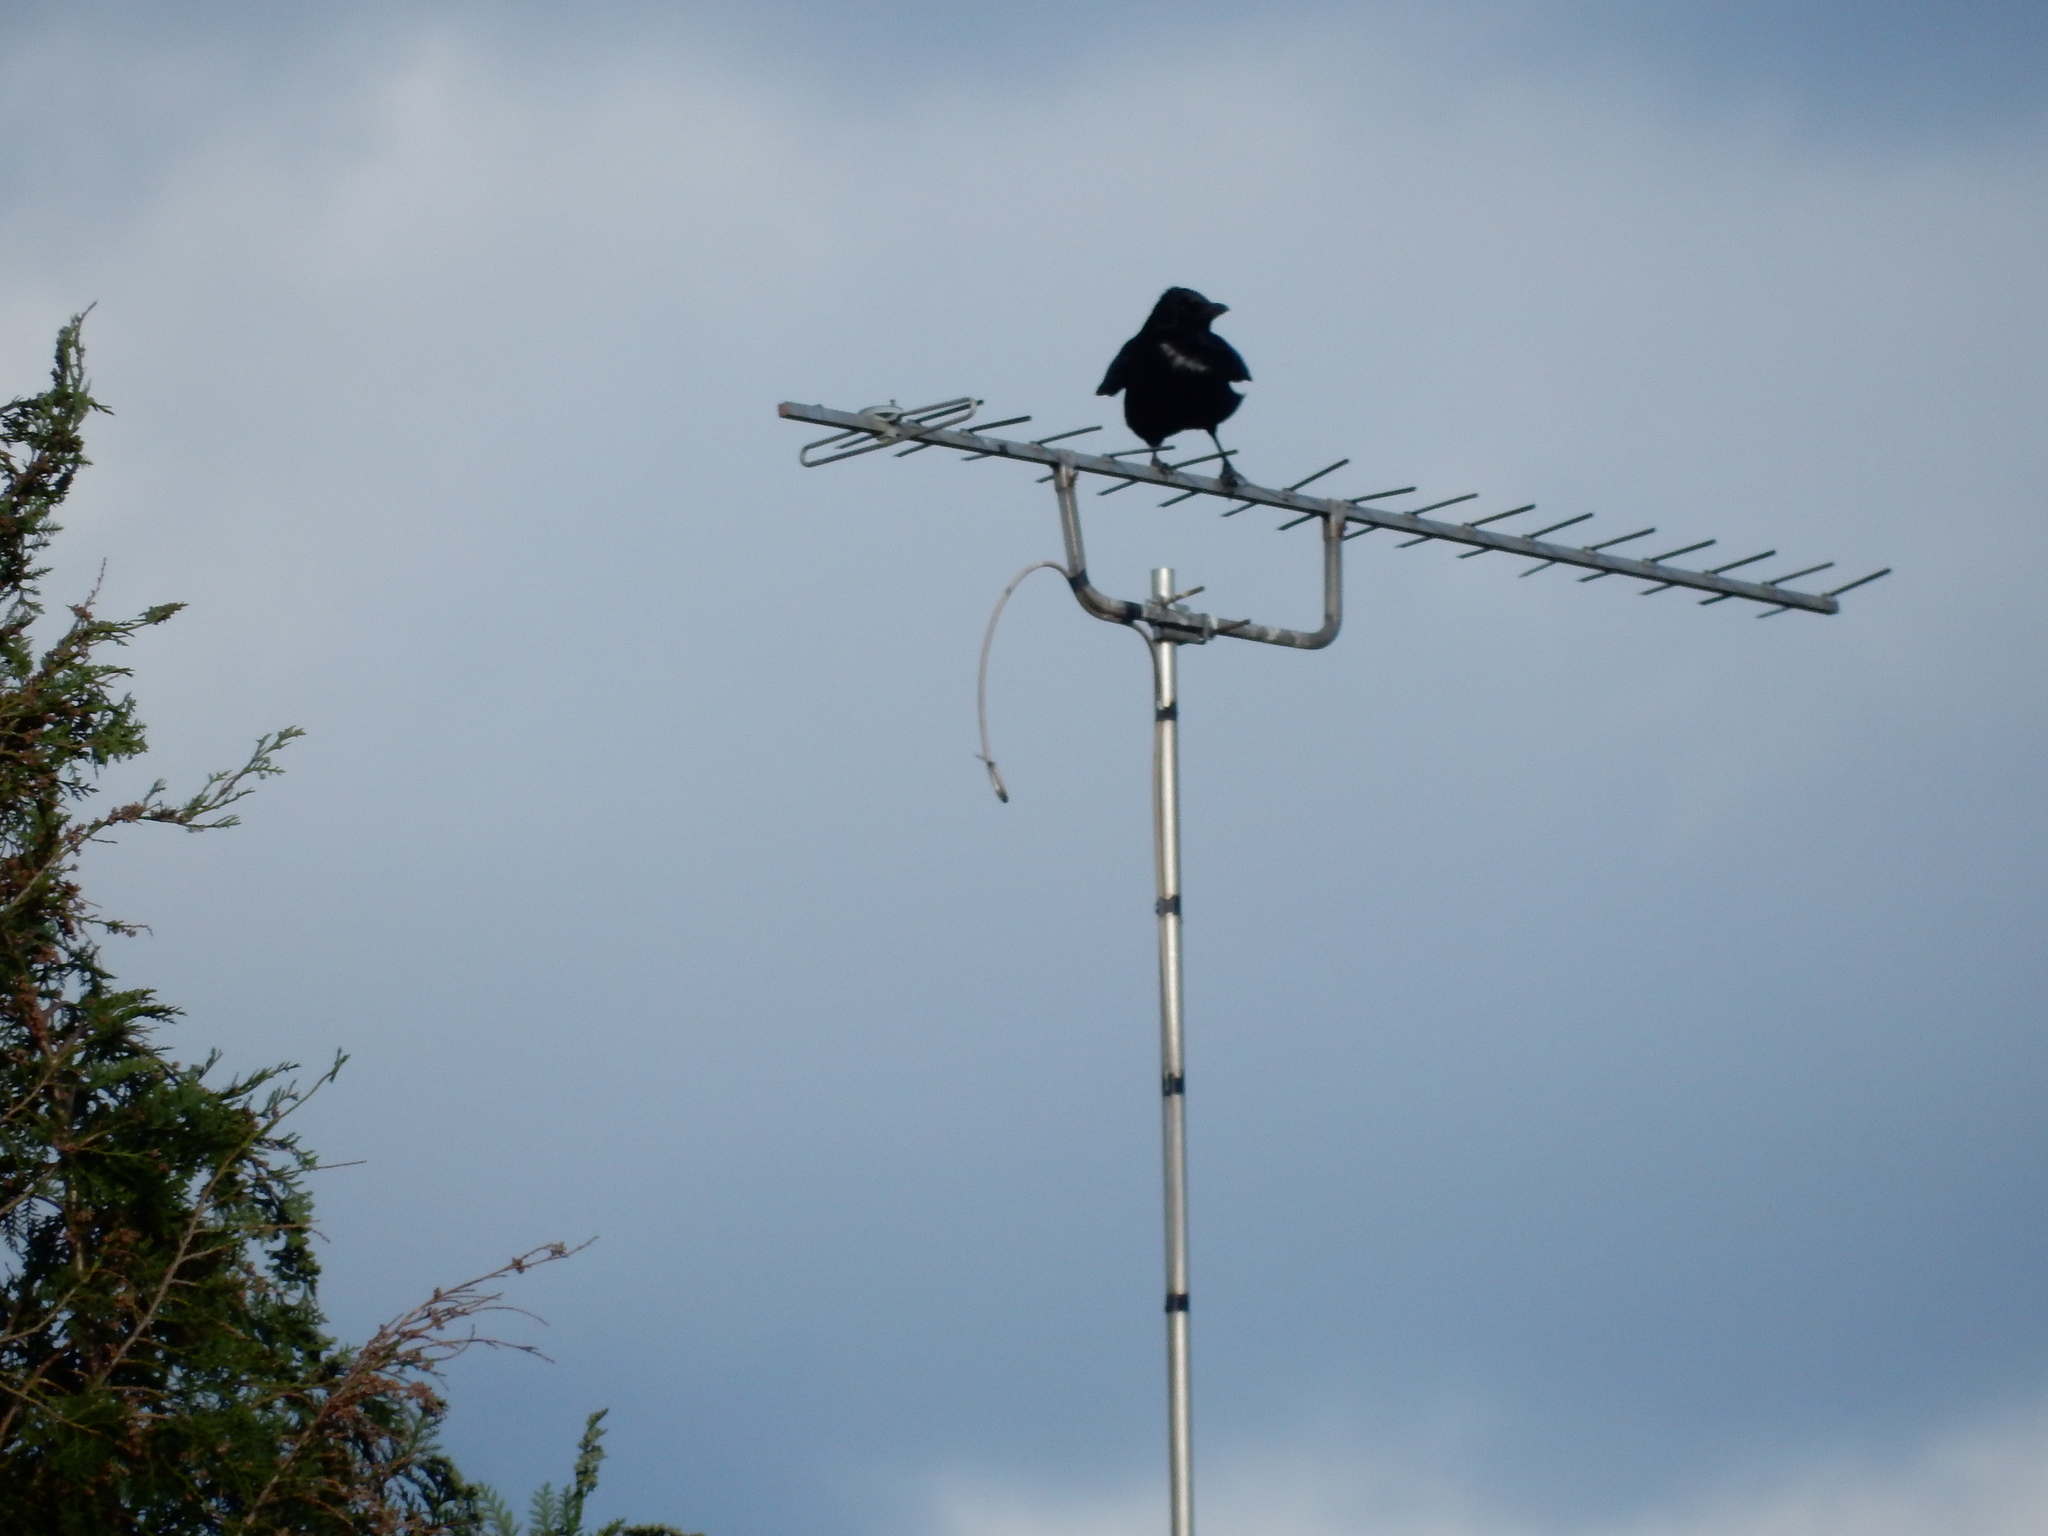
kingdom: Animalia
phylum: Chordata
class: Aves
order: Passeriformes
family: Corvidae
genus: Corvus
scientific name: Corvus corone
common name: Carrion crow
